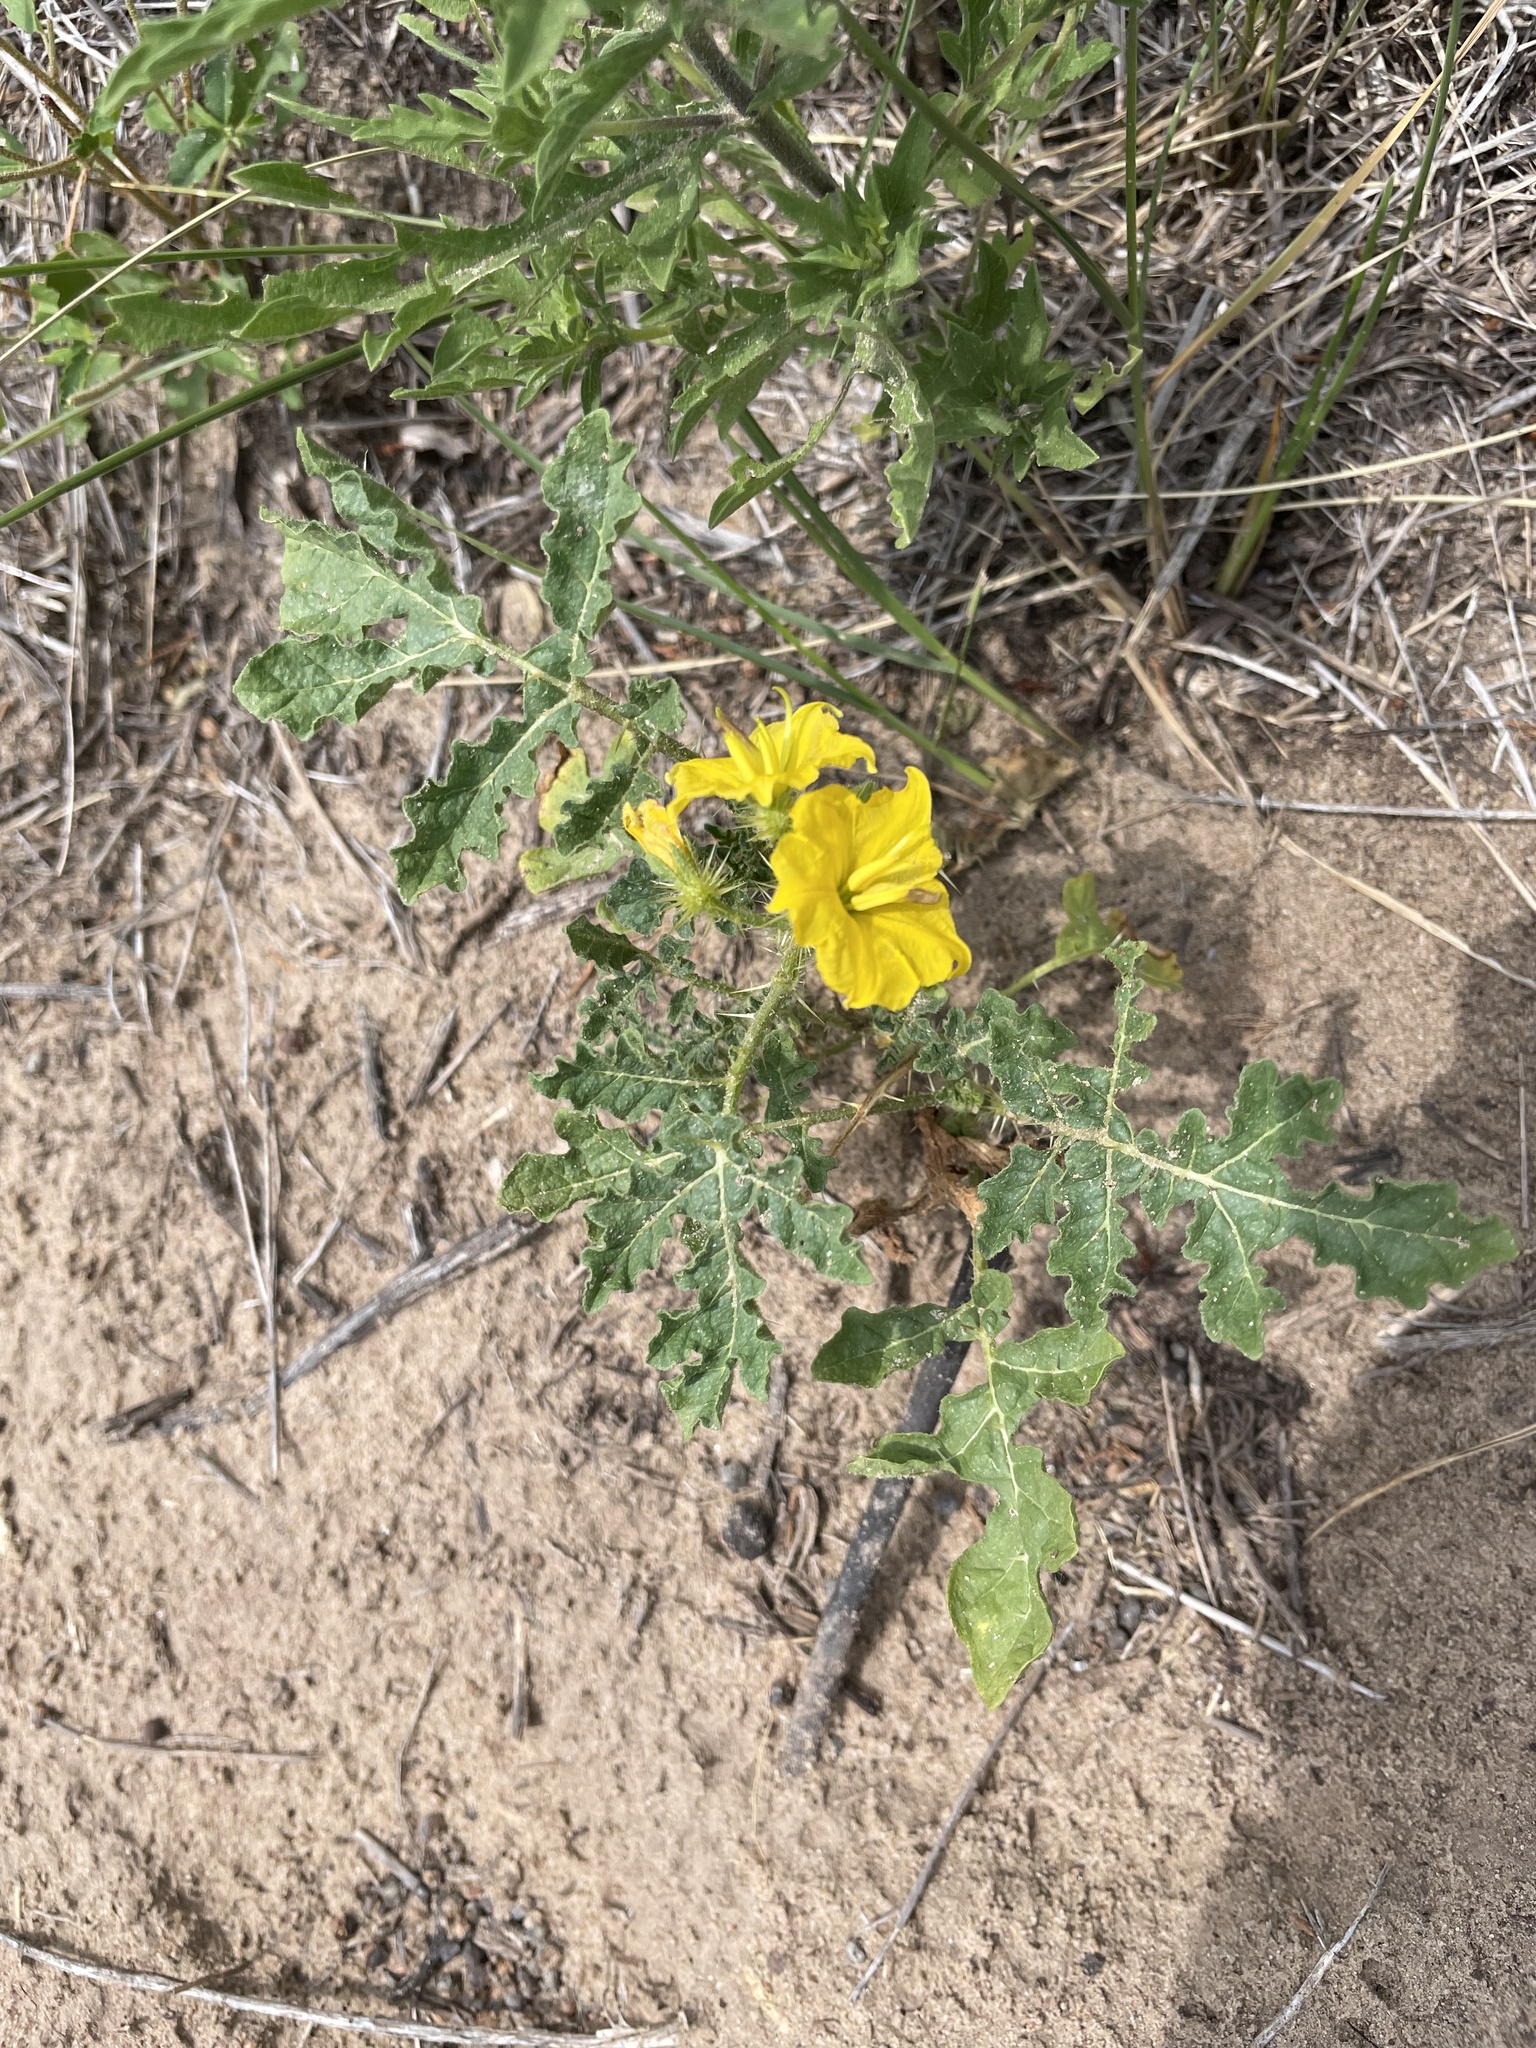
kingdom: Plantae
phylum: Tracheophyta
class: Magnoliopsida
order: Solanales
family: Solanaceae
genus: Solanum
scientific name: Solanum angustifolium
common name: Buffalobur nightshade
